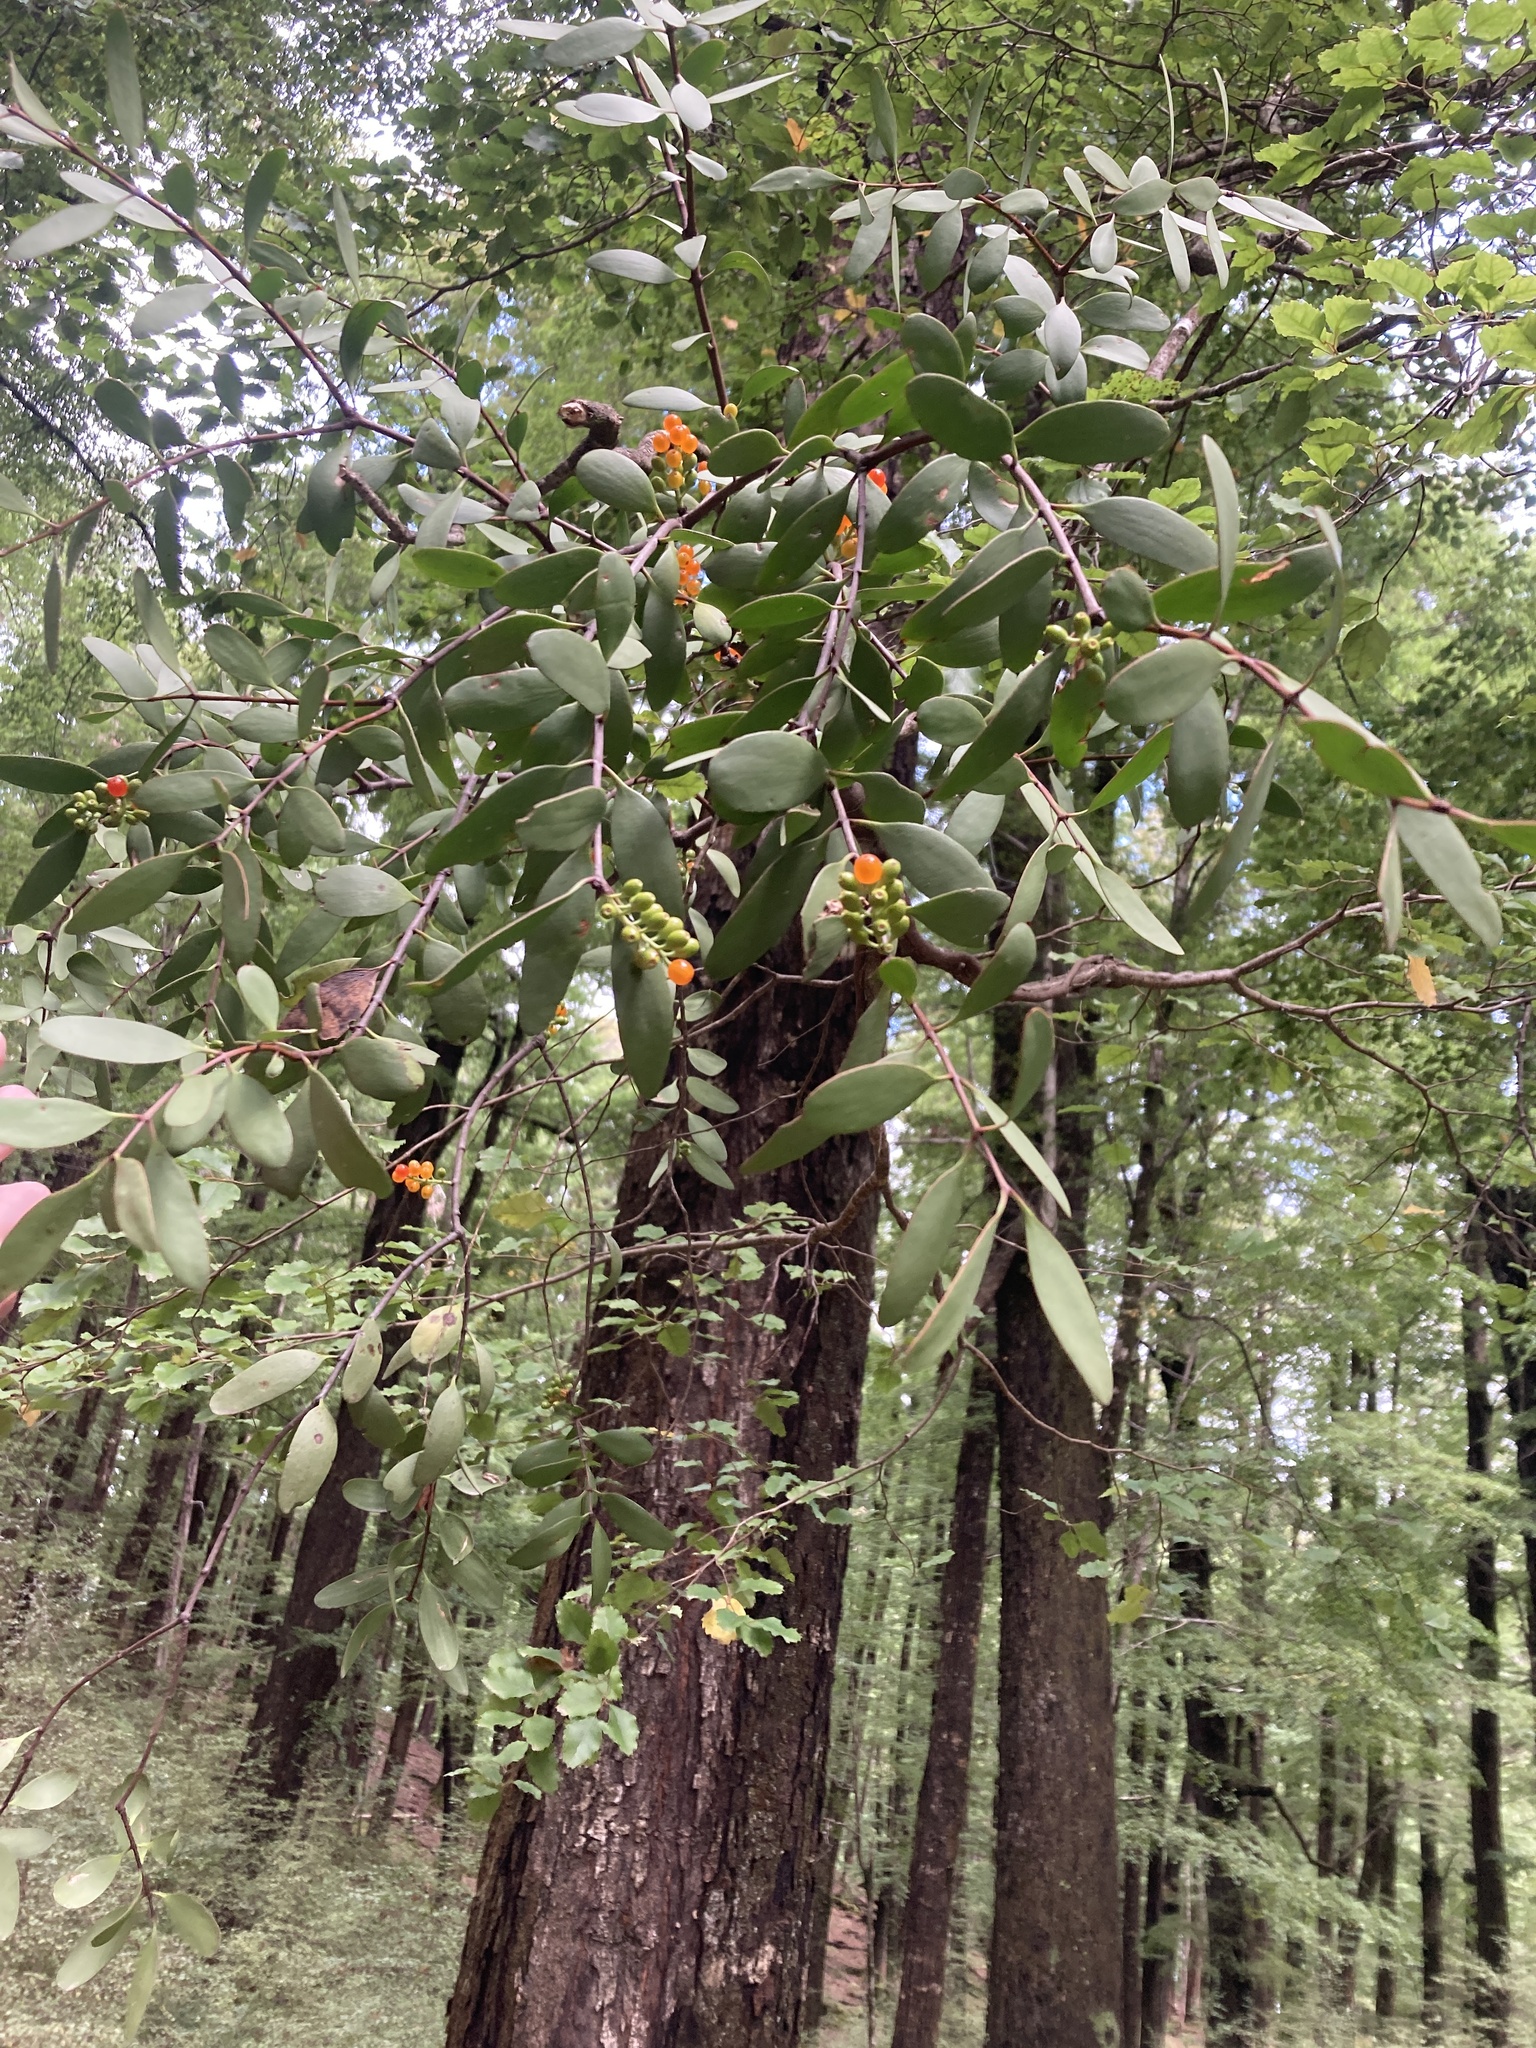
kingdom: Plantae
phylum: Tracheophyta
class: Magnoliopsida
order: Santalales
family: Loranthaceae
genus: Alepis
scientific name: Alepis flavida
